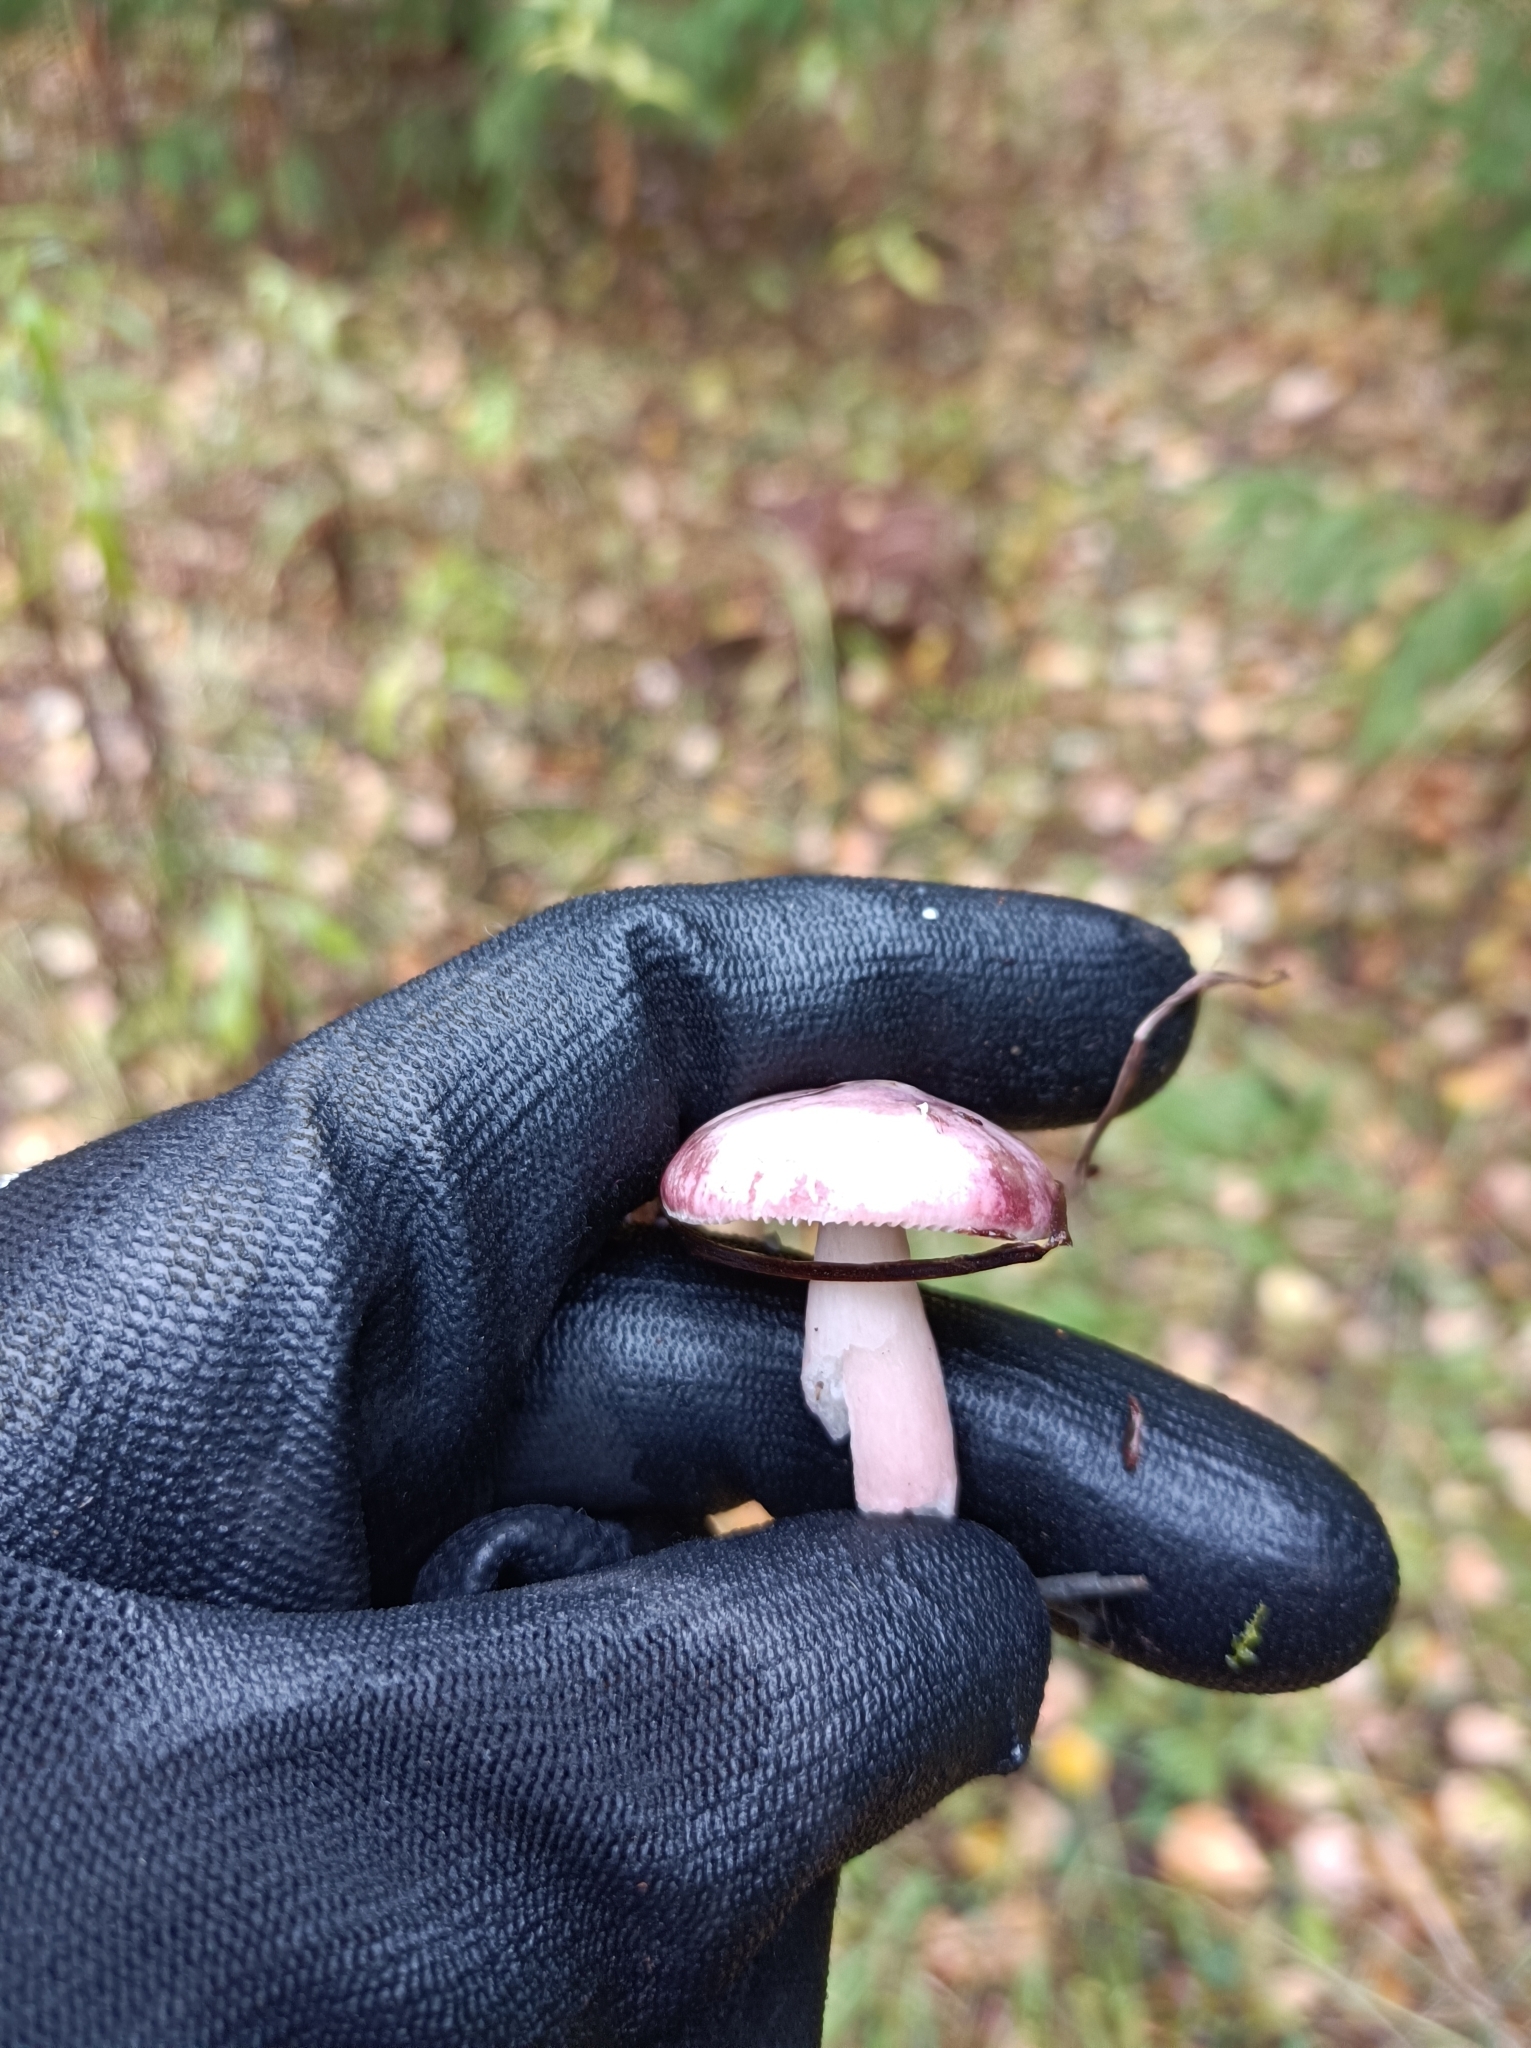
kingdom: Fungi
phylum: Basidiomycota
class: Agaricomycetes
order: Russulales
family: Russulaceae
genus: Russula
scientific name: Russula sardonia
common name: Primrose brittlegill
